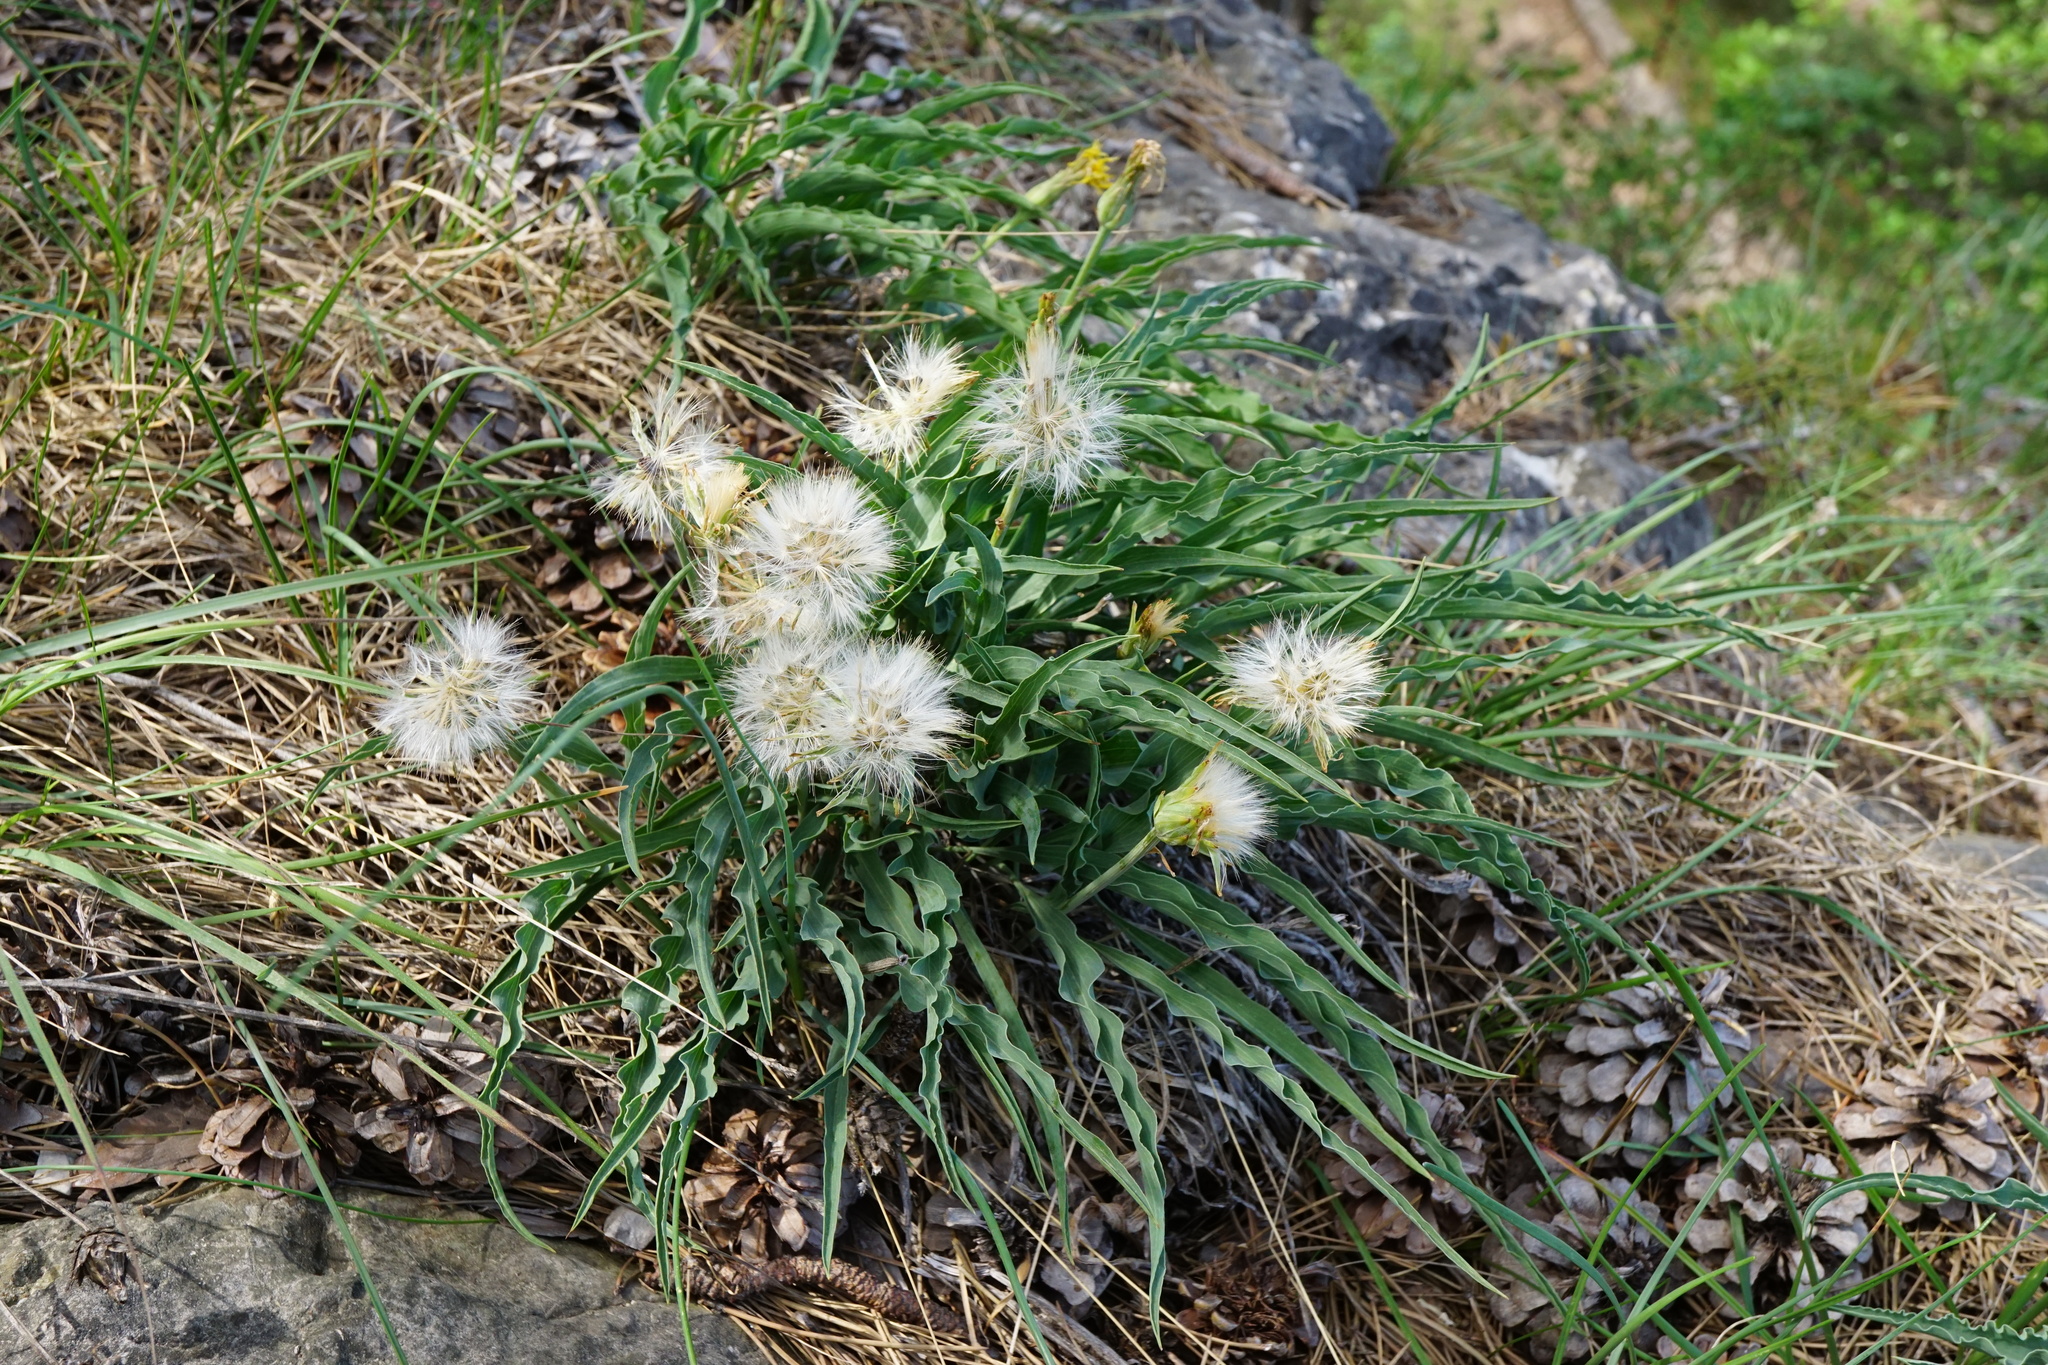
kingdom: Plantae
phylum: Tracheophyta
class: Magnoliopsida
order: Asterales
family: Asteraceae
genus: Takhtajaniantha
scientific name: Takhtajaniantha austriaca
